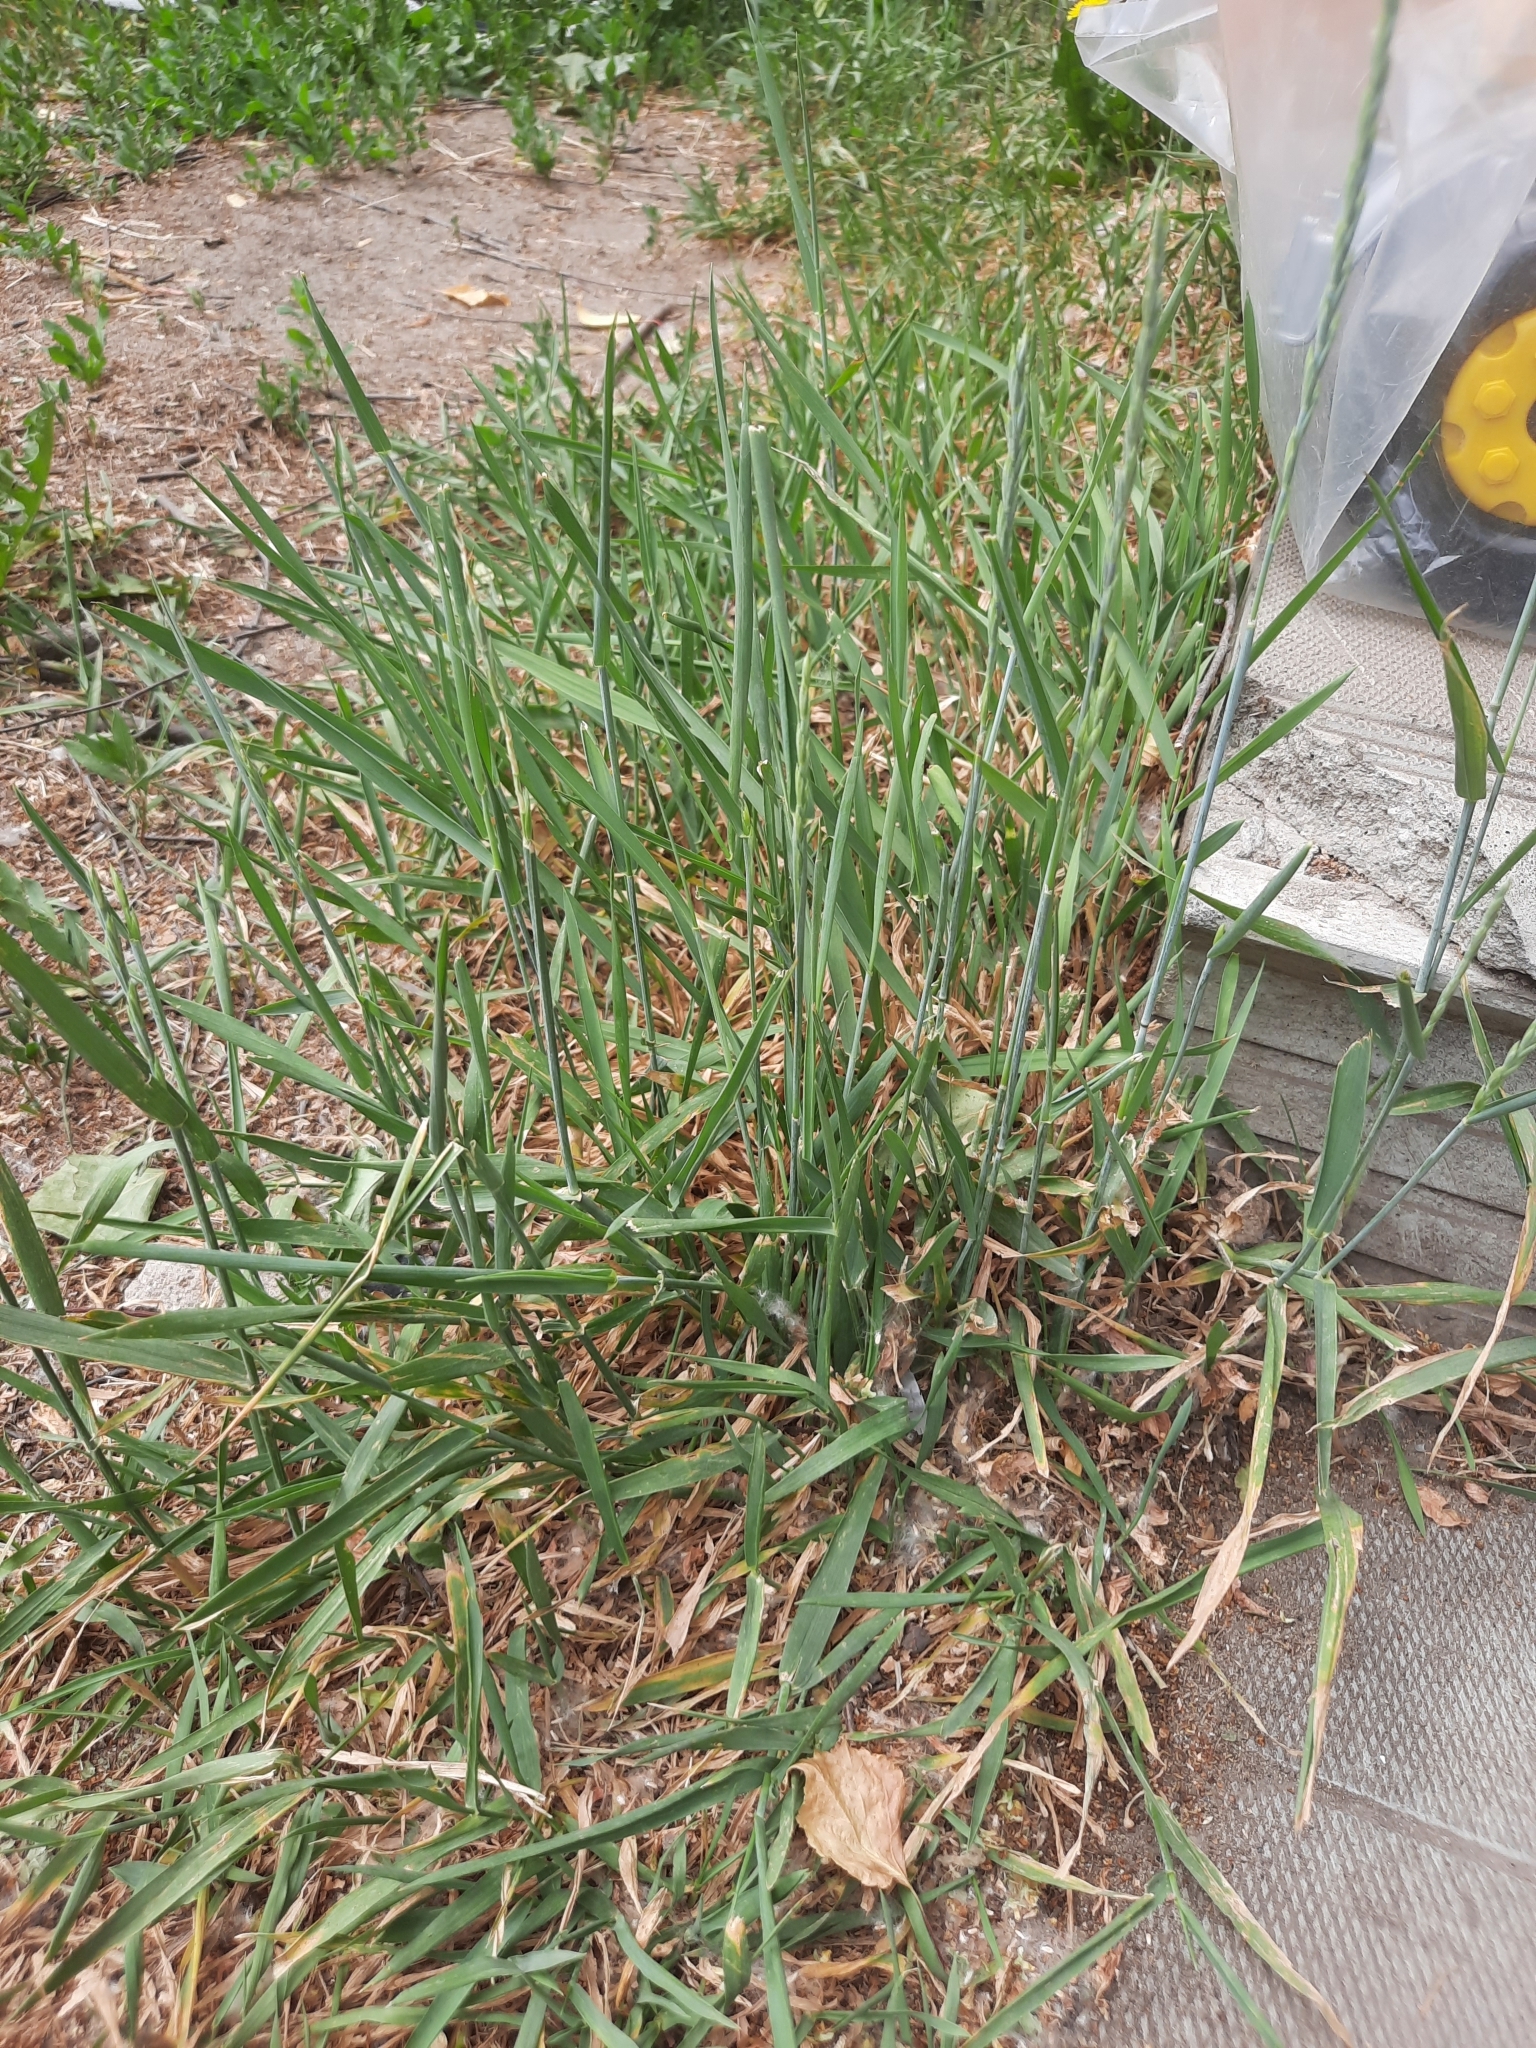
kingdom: Plantae
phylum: Tracheophyta
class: Liliopsida
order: Poales
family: Poaceae
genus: Thinopyrum
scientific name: Thinopyrum intermedium
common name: Intermediate wheatgrass
